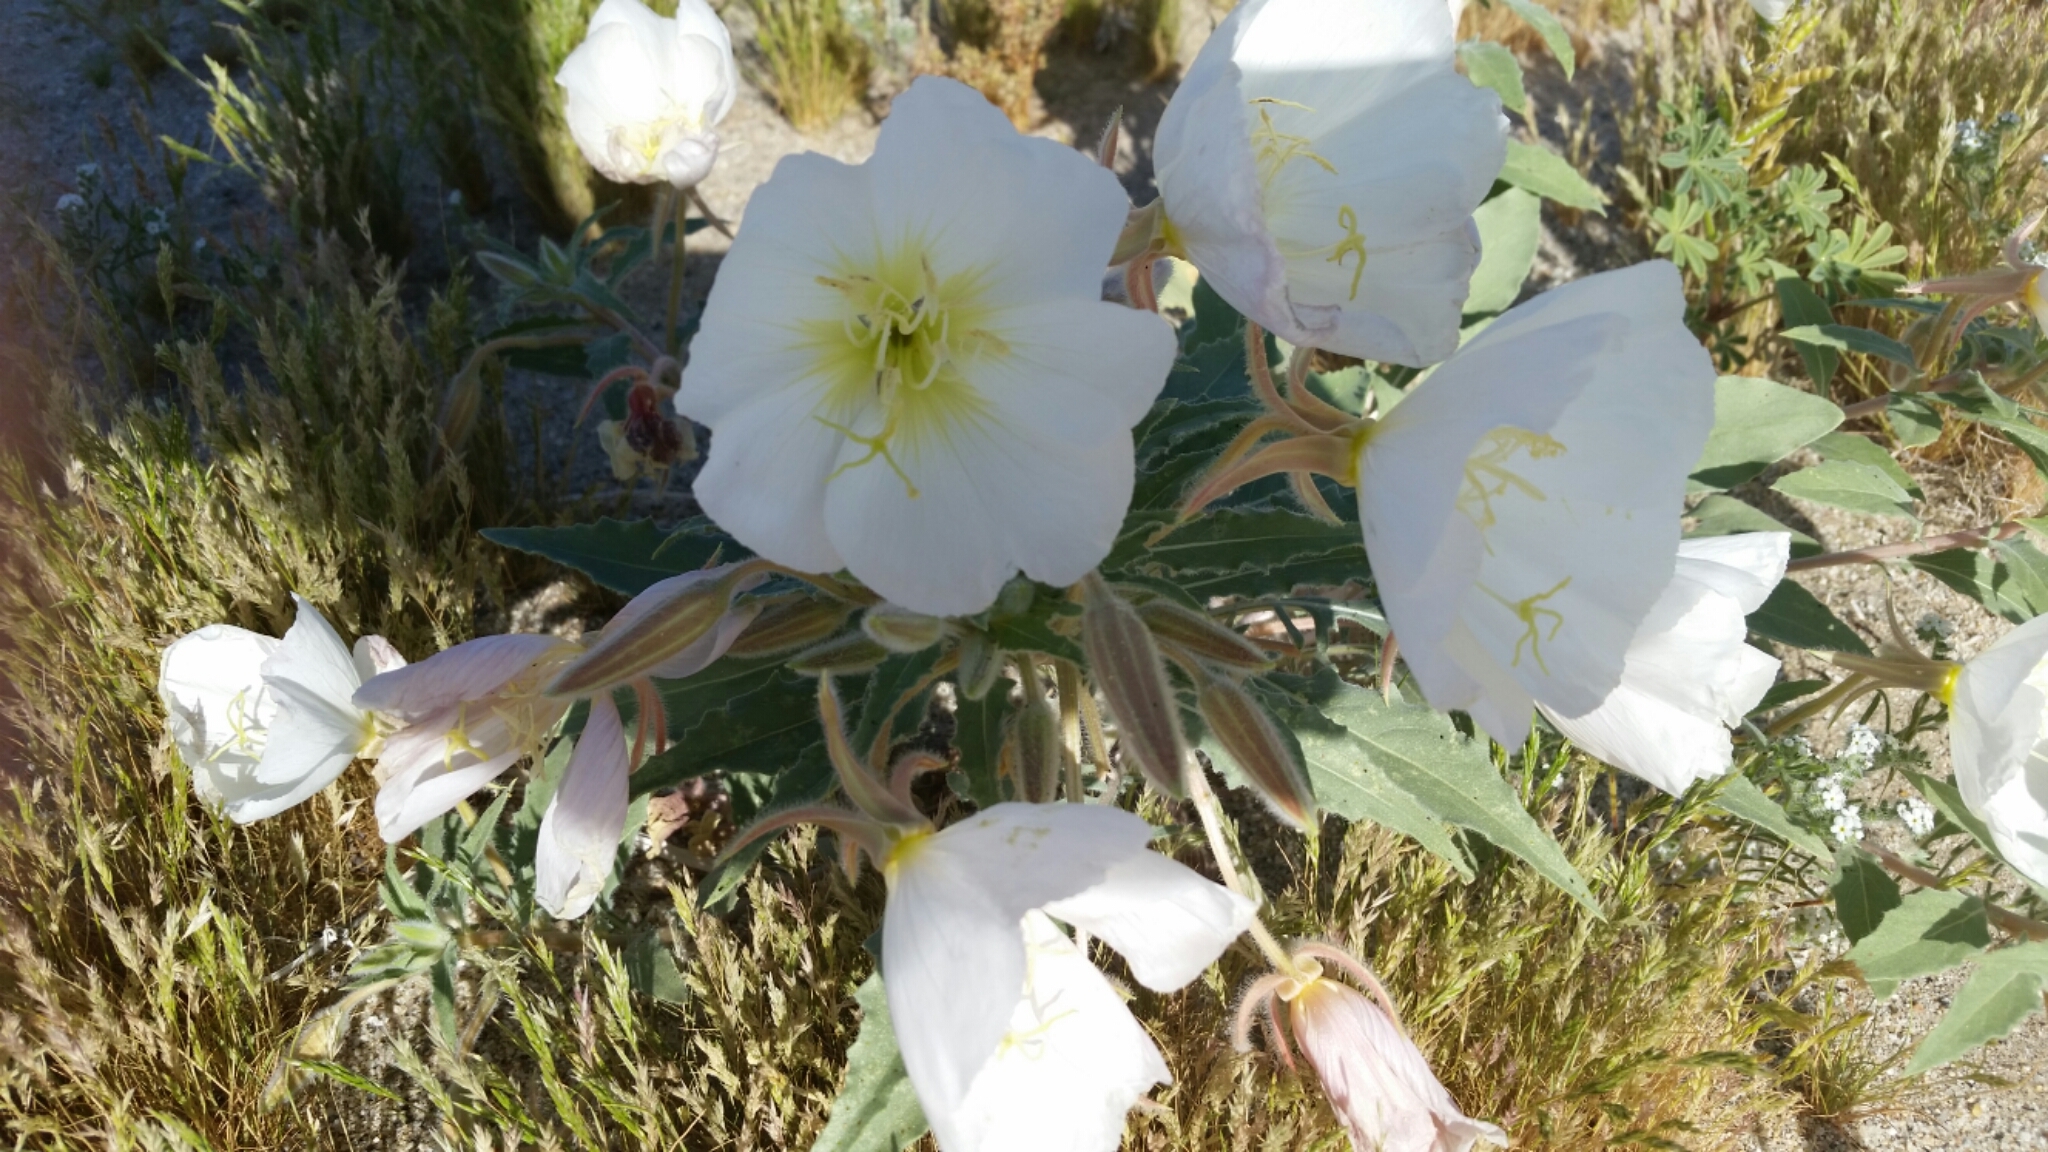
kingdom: Plantae
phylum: Tracheophyta
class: Magnoliopsida
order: Myrtales
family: Onagraceae
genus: Oenothera
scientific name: Oenothera deltoides
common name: Basket evening-primrose
